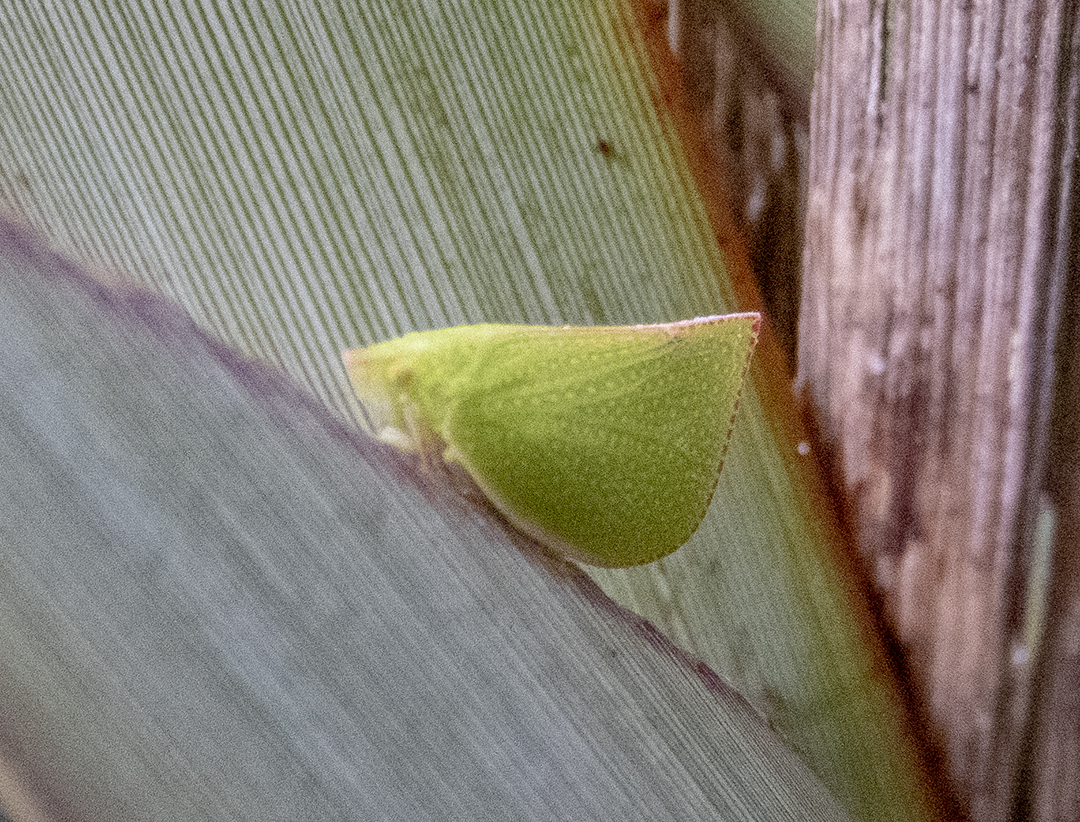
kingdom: Animalia
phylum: Arthropoda
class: Insecta
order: Hemiptera
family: Flatidae
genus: Siphanta
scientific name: Siphanta acuta
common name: Torpedo bug
